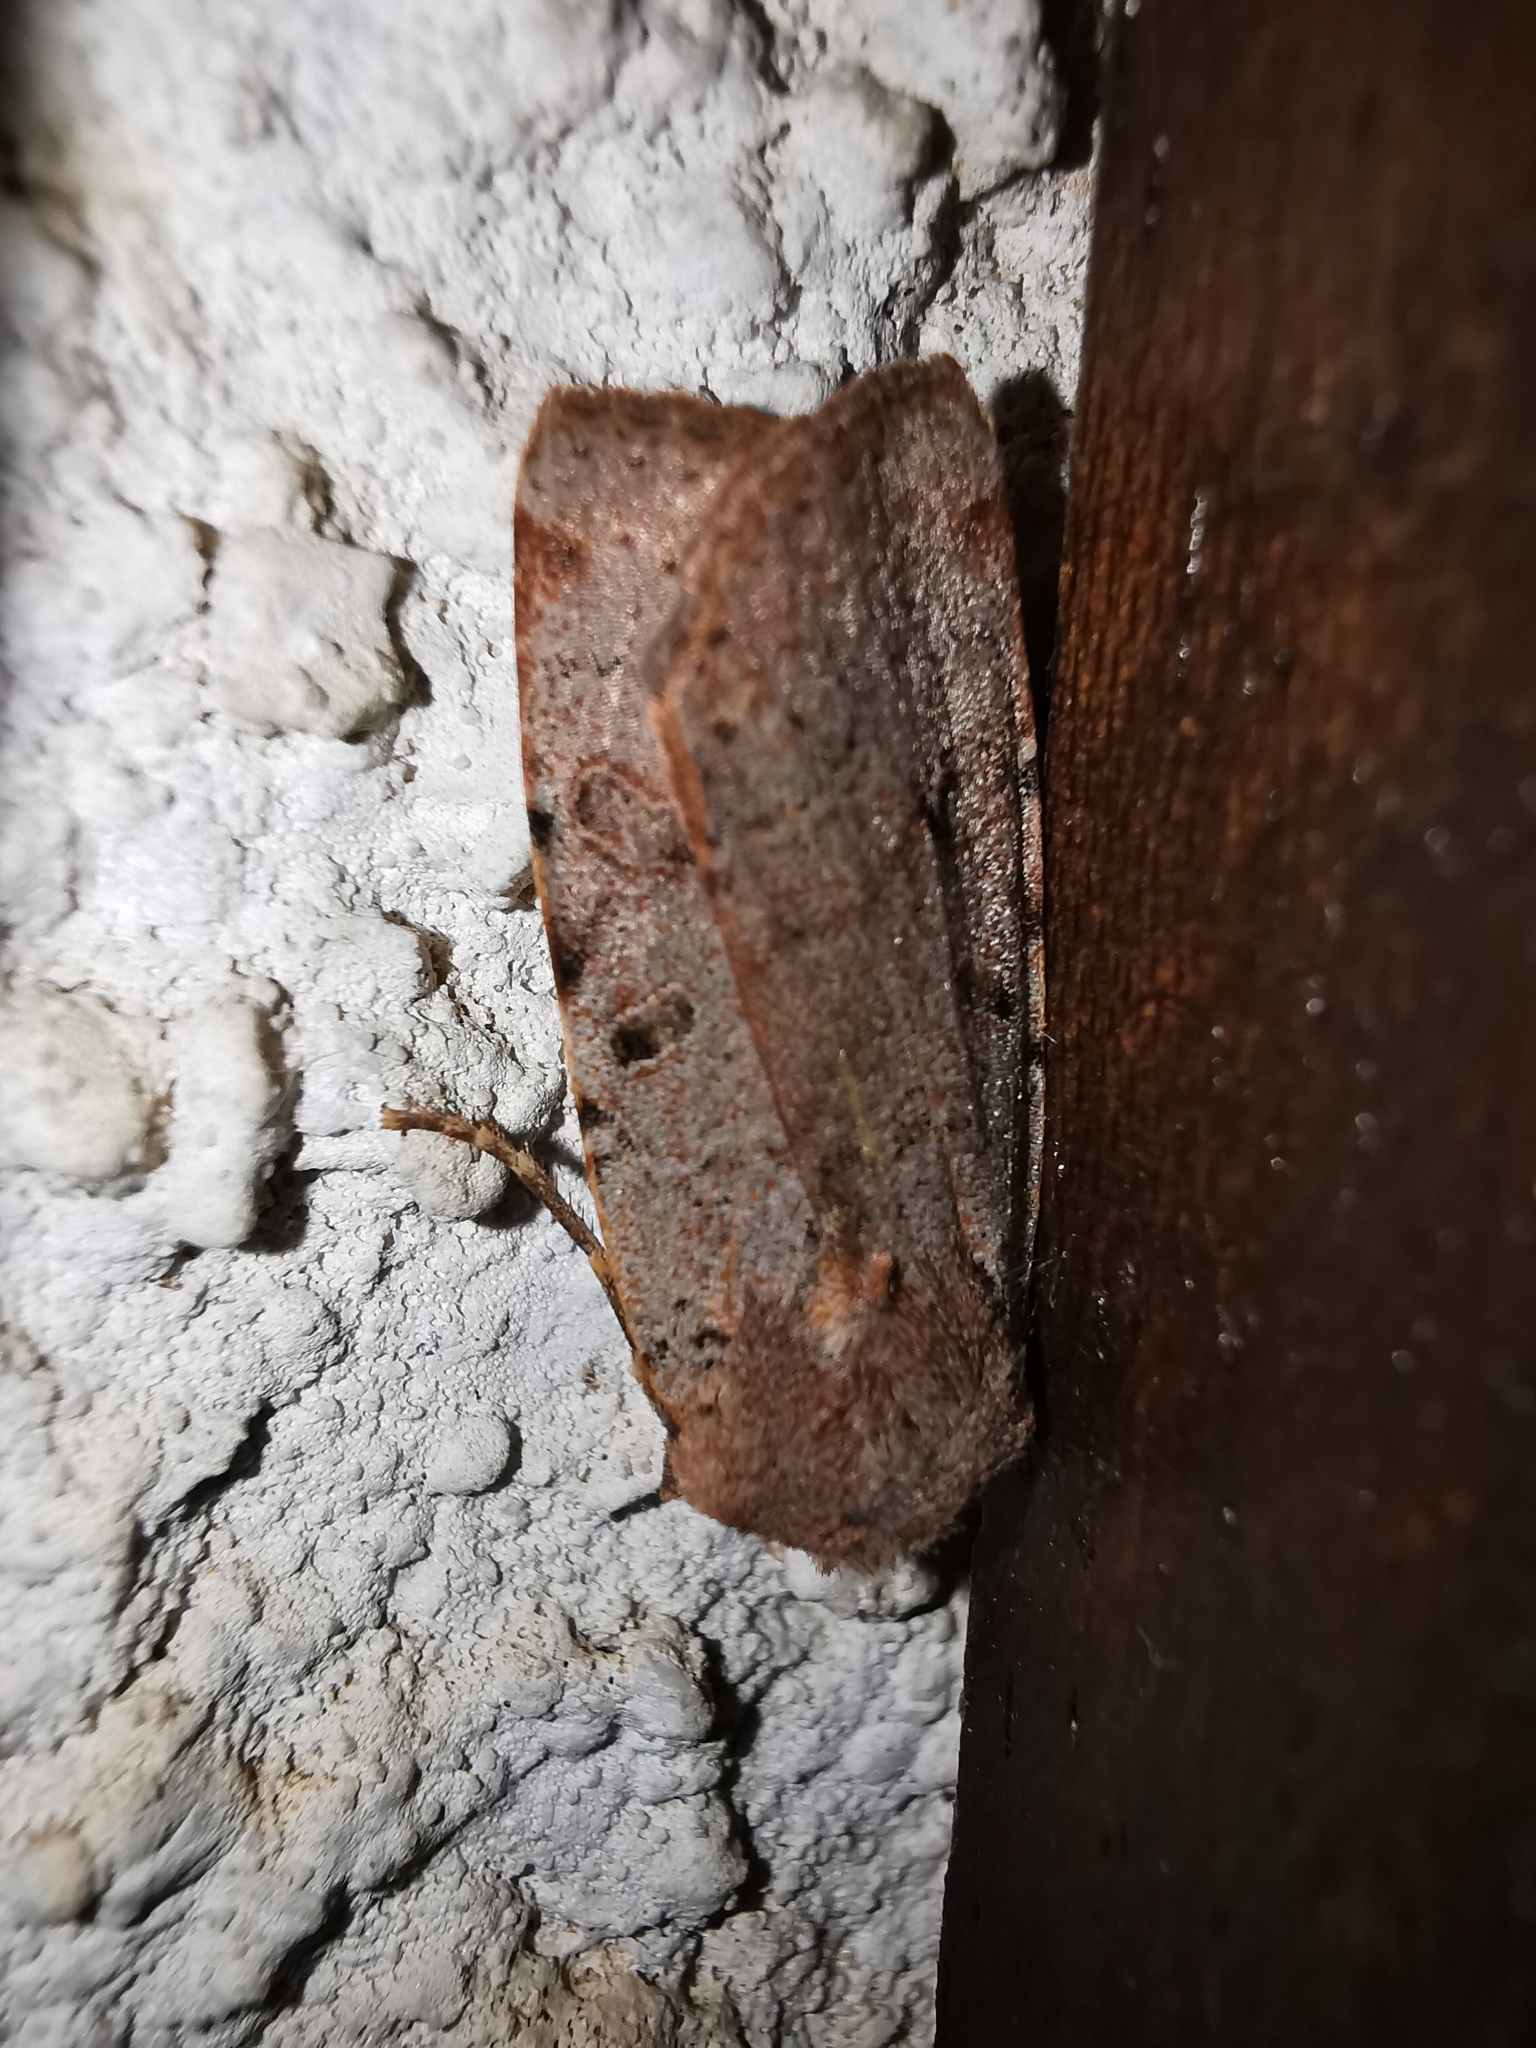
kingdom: Animalia
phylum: Arthropoda
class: Insecta
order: Lepidoptera
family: Noctuidae
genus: Agrochola
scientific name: Agrochola lychnidis
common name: Beaded chestnut
